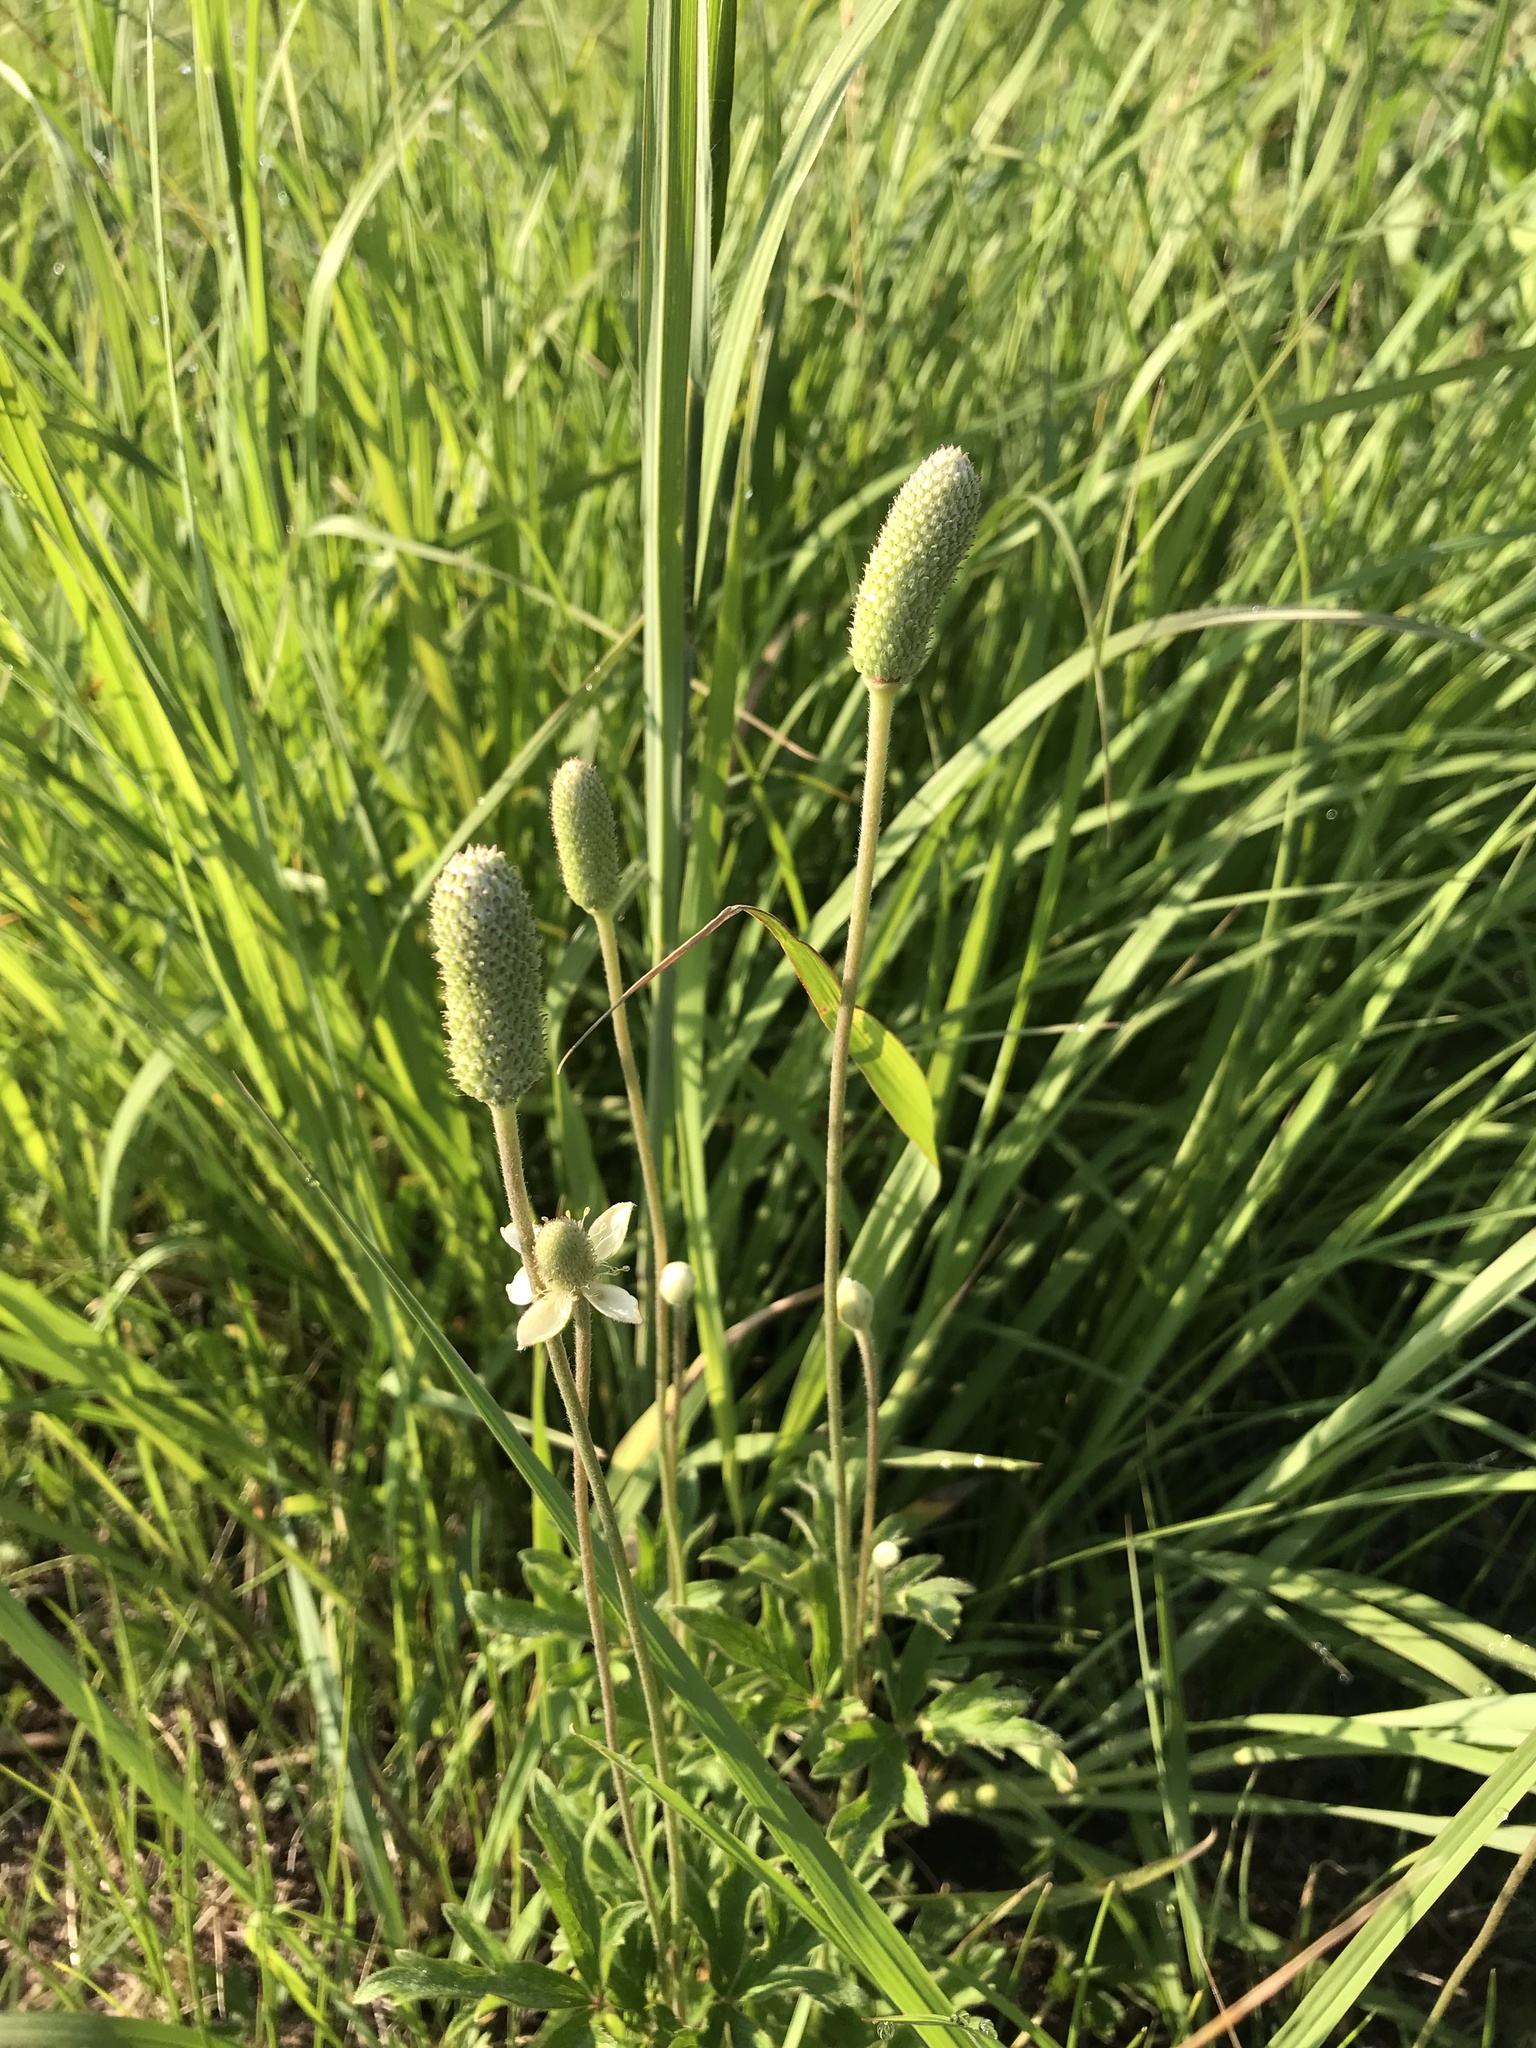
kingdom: Plantae
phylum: Tracheophyta
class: Magnoliopsida
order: Ranunculales
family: Ranunculaceae
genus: Anemone
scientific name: Anemone cylindrica
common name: Candle anemone
